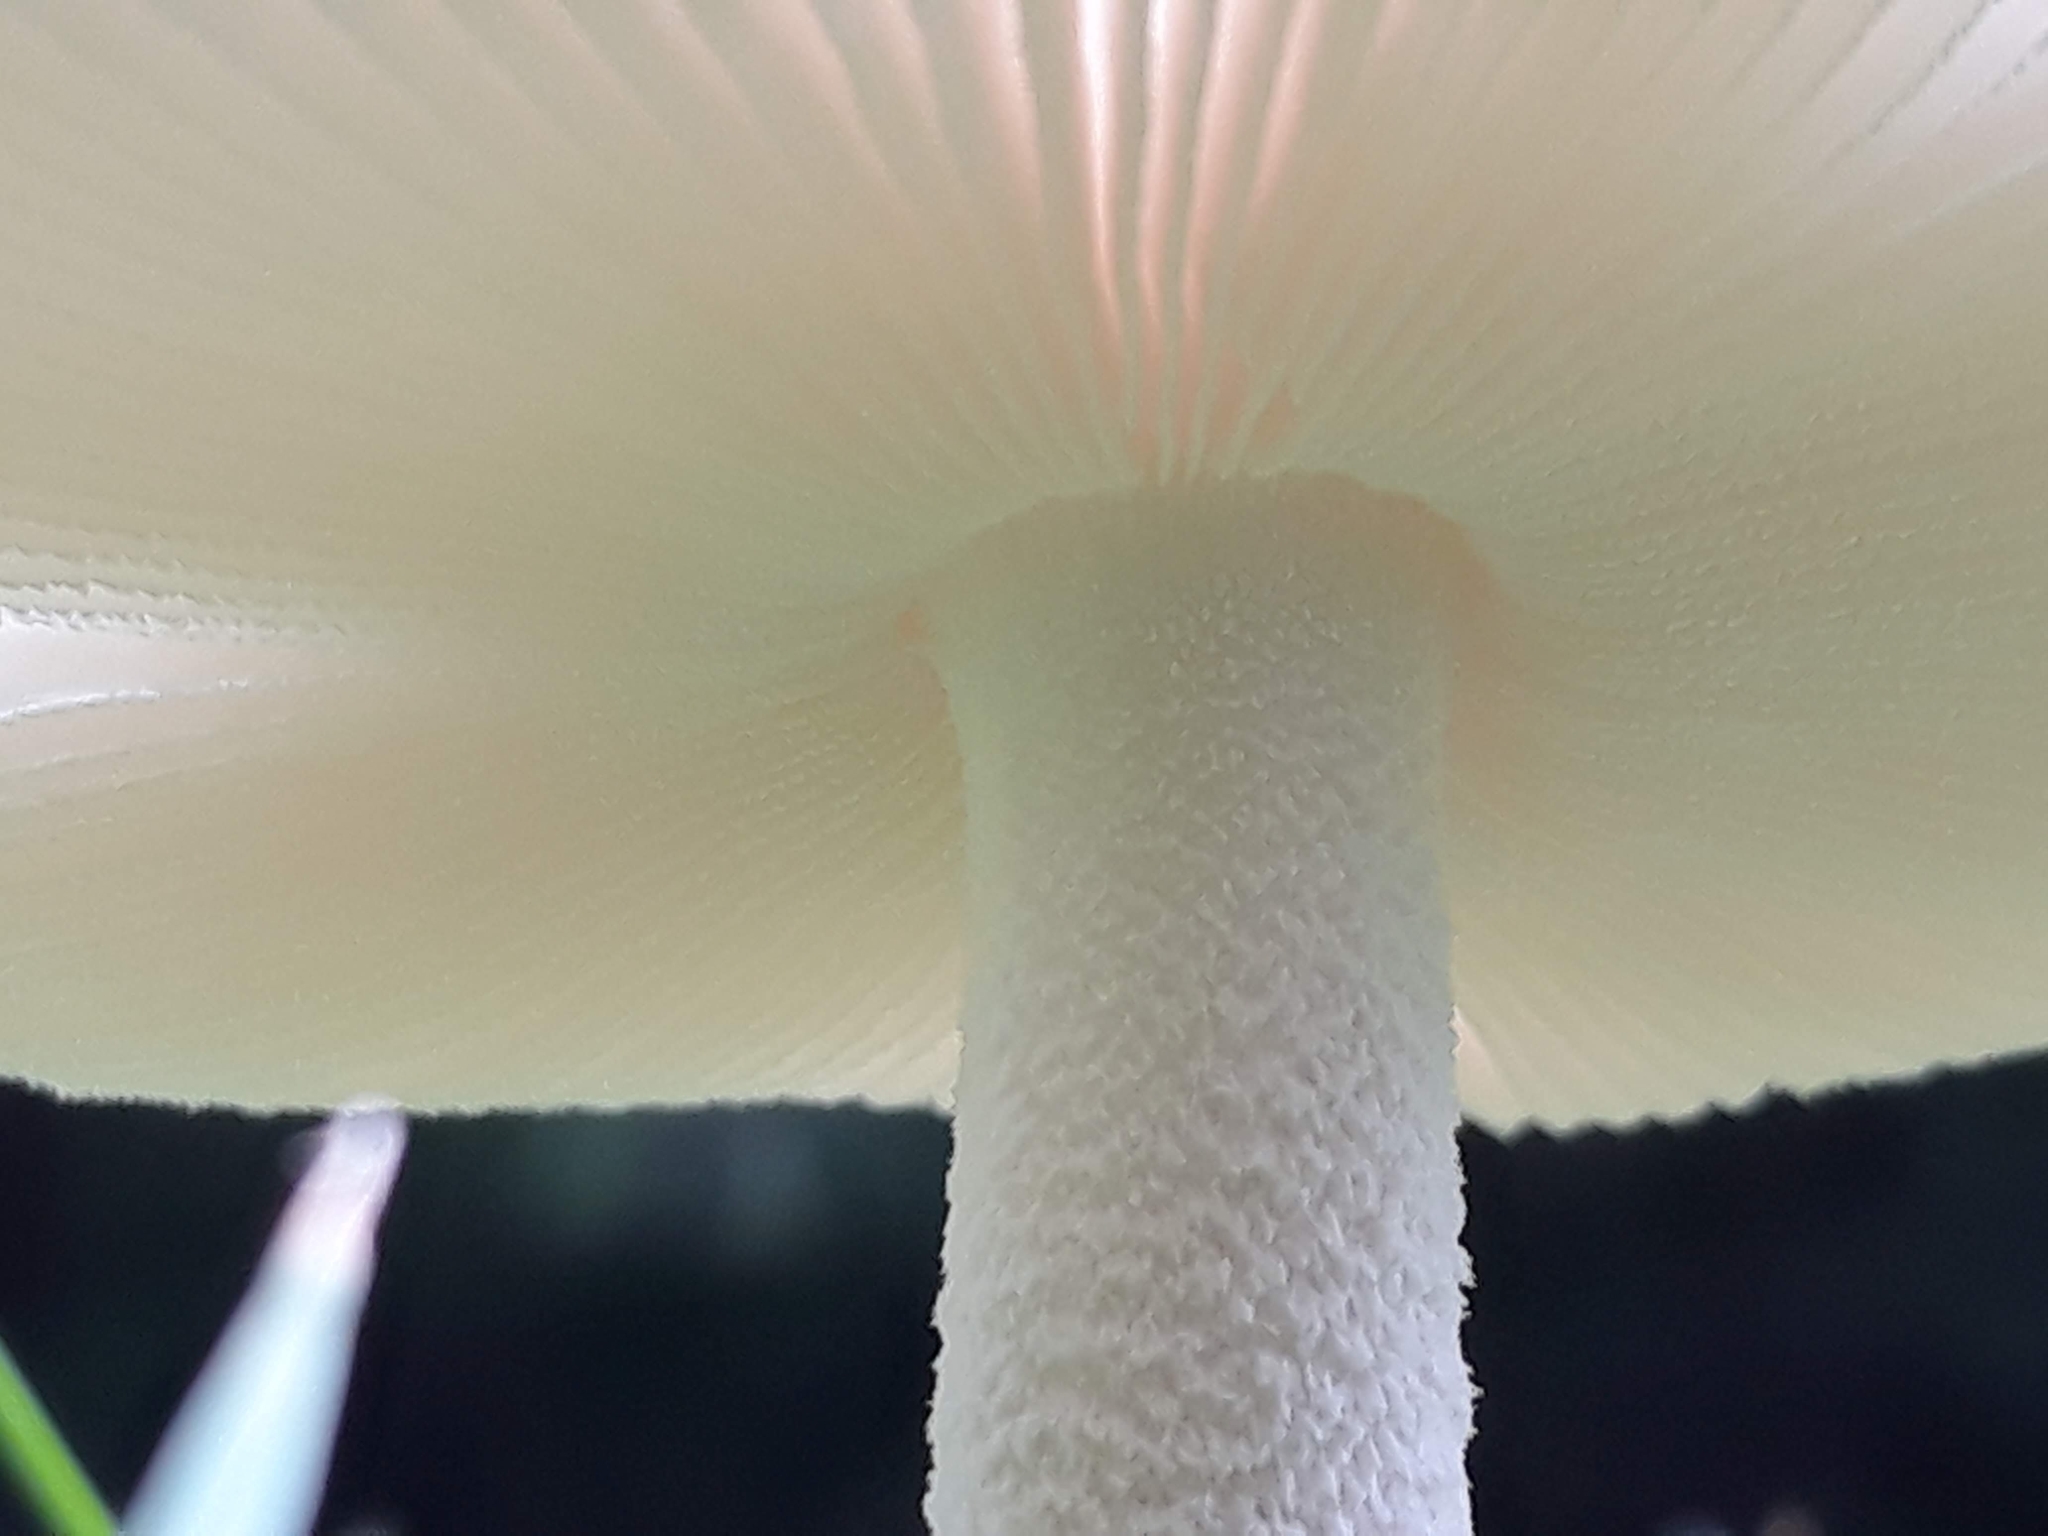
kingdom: Fungi
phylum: Basidiomycota
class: Agaricomycetes
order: Agaricales
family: Amanitaceae
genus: Amanita
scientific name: Amanita
